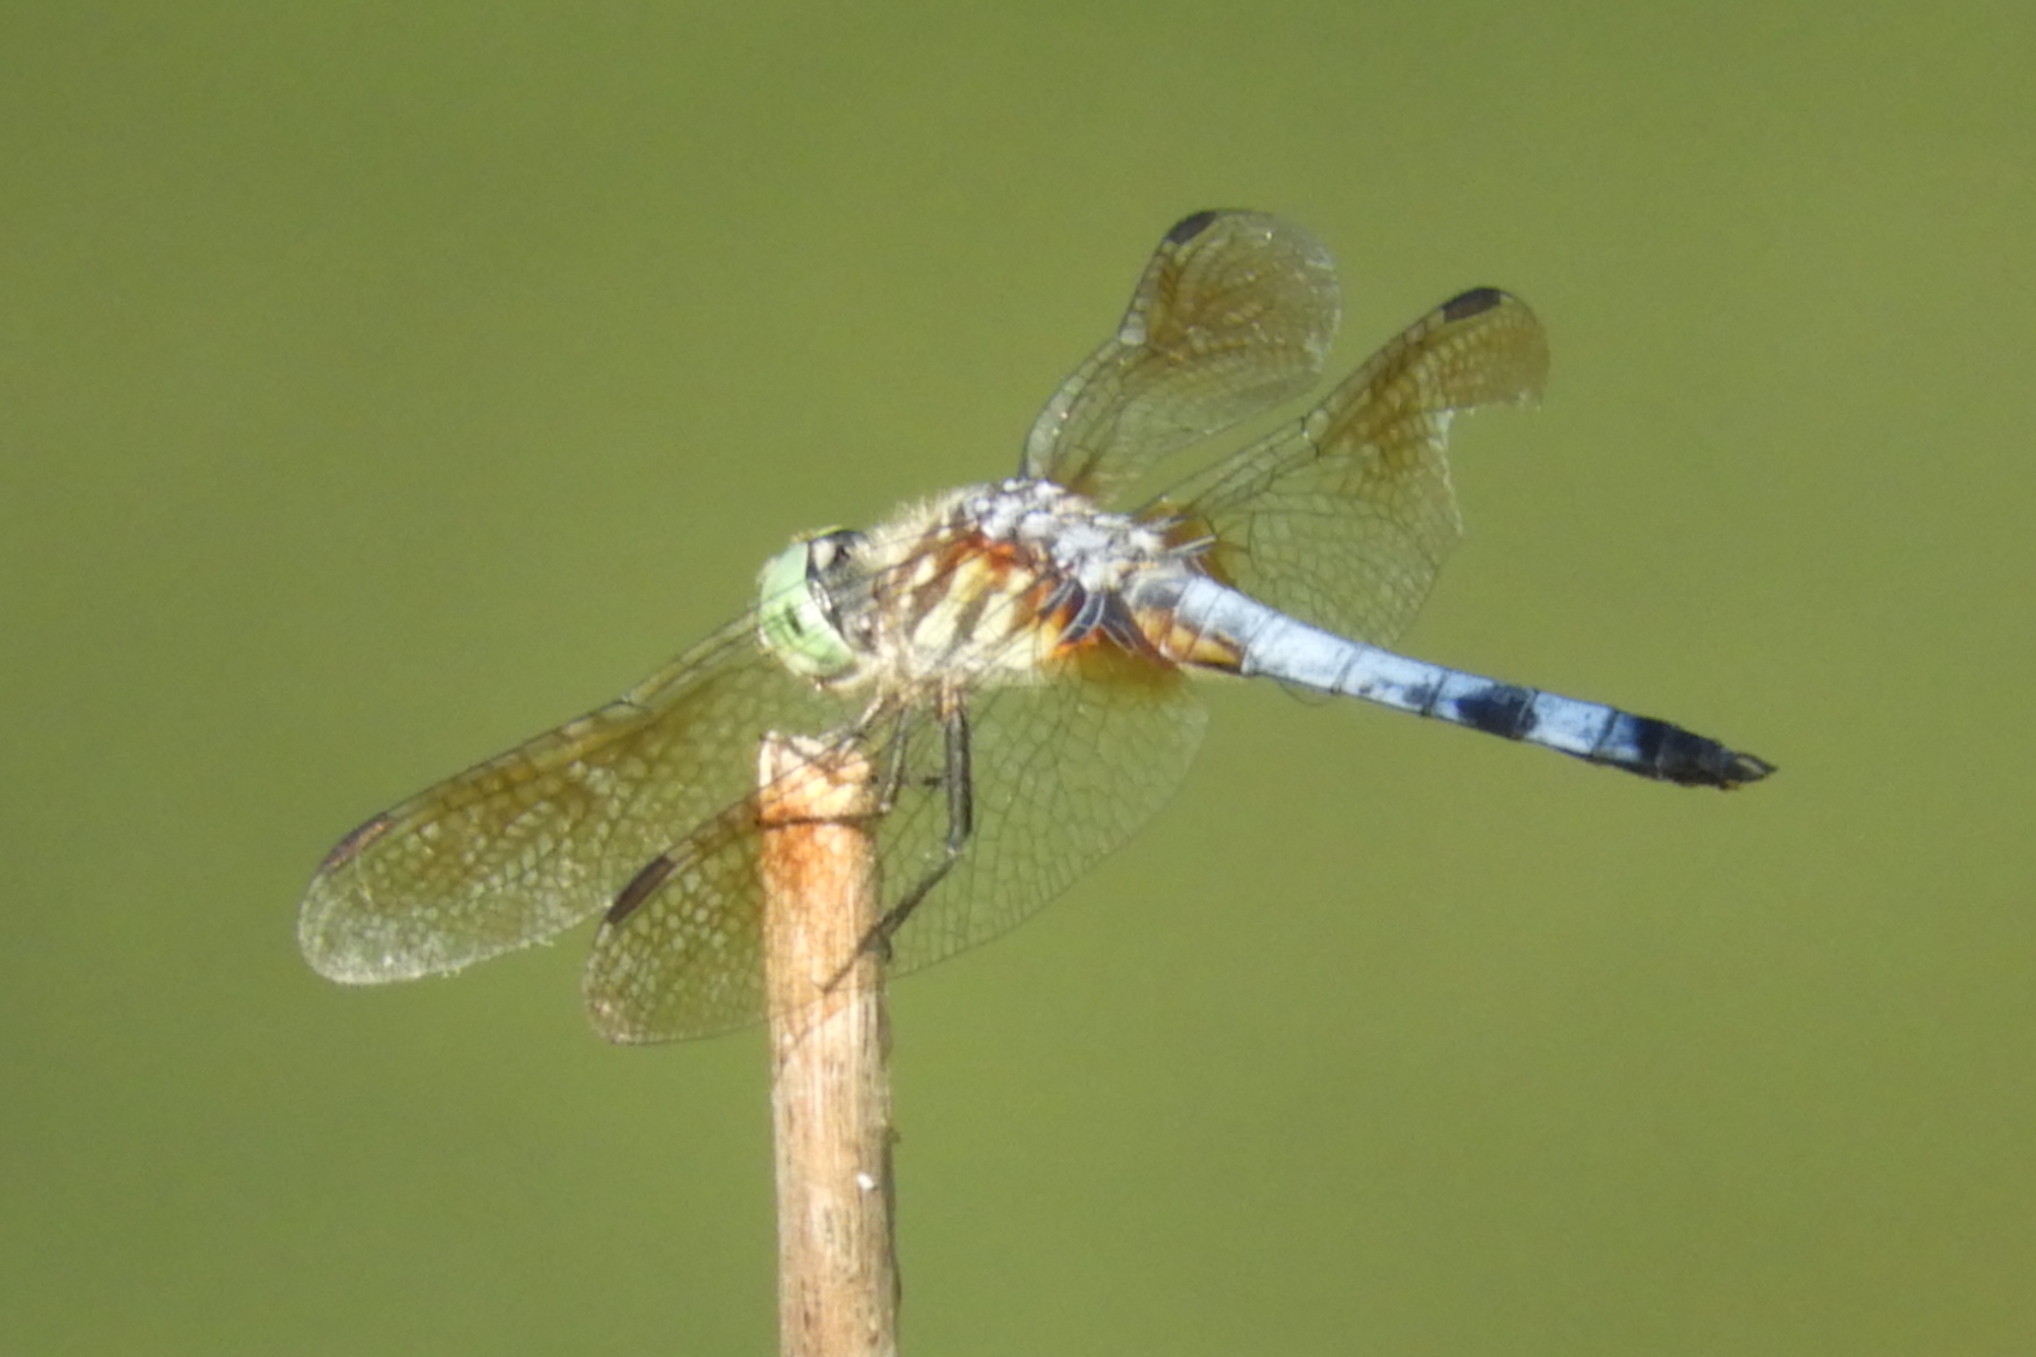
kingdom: Animalia
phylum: Arthropoda
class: Insecta
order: Odonata
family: Libellulidae
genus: Pachydiplax
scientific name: Pachydiplax longipennis
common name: Blue dasher
